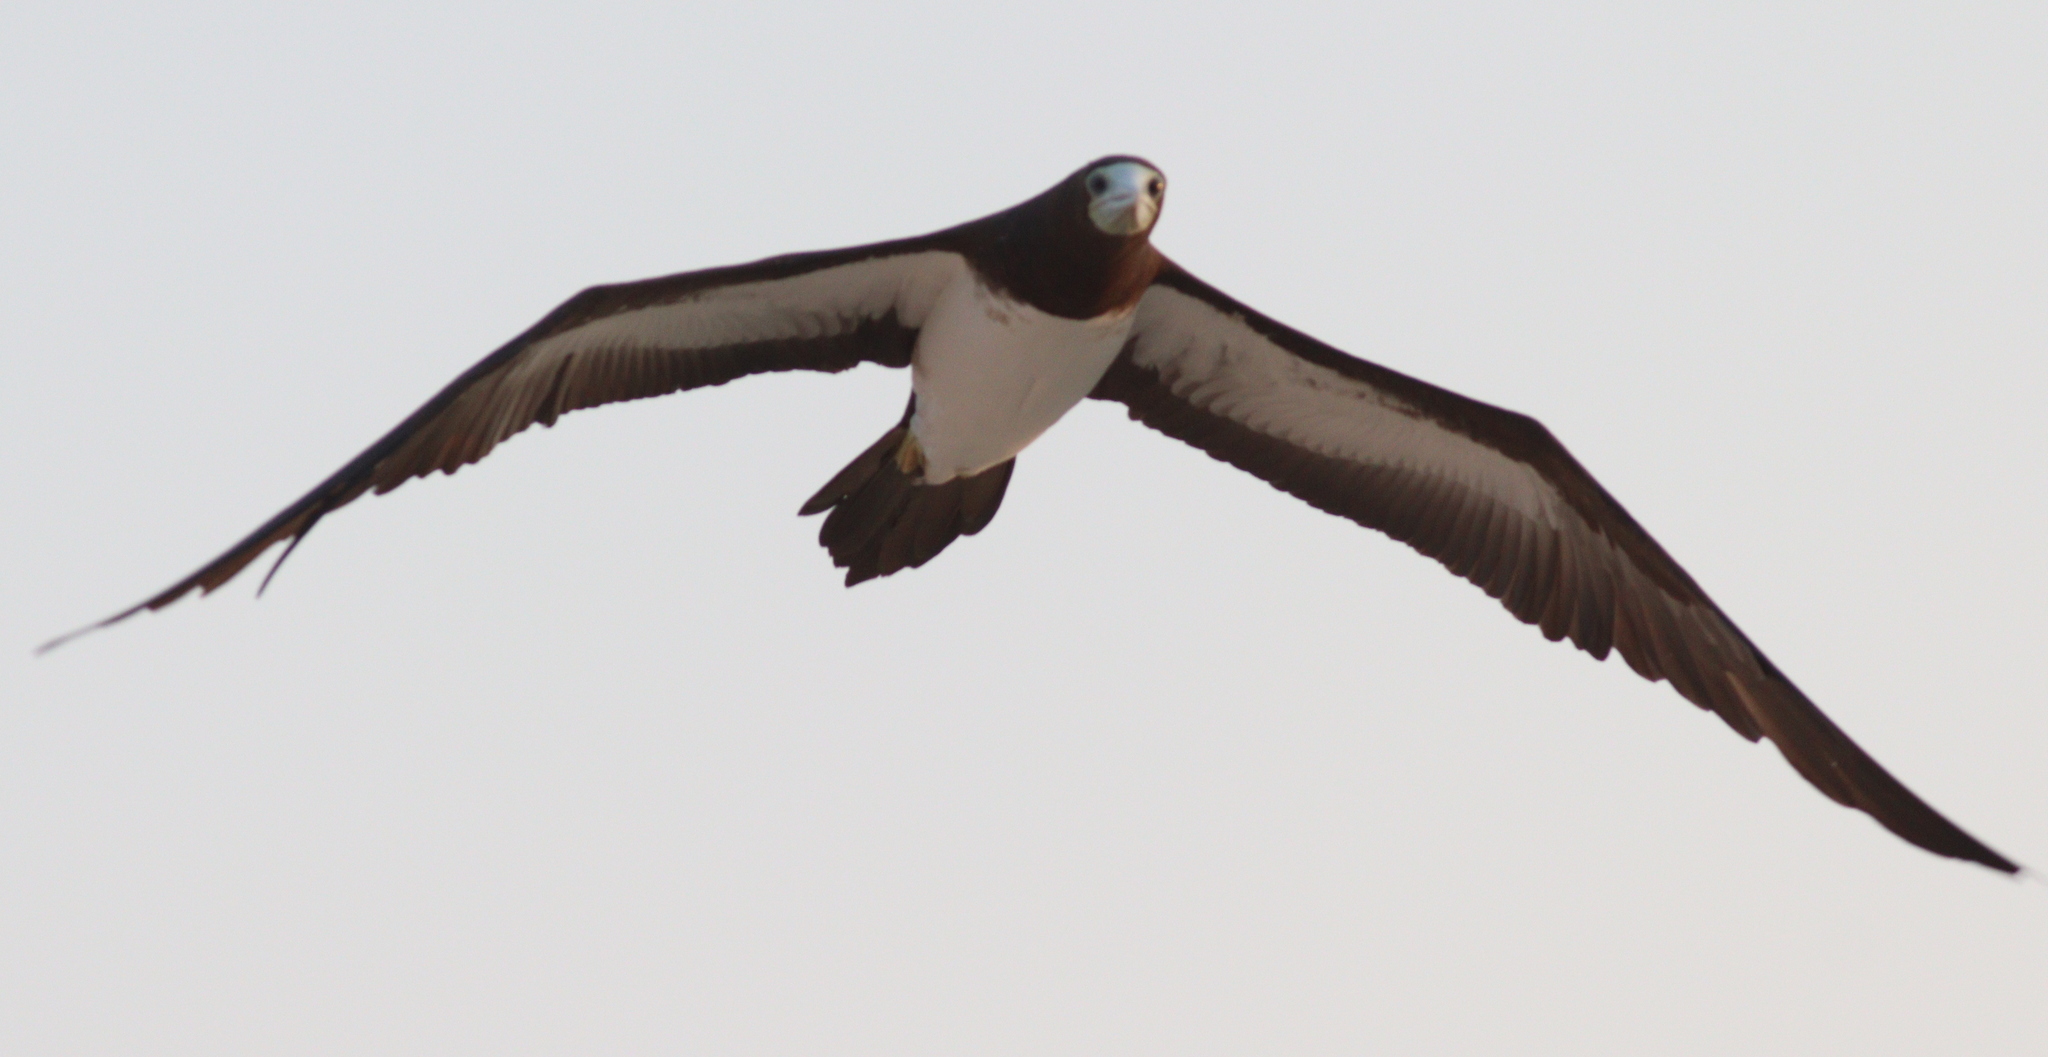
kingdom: Animalia
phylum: Chordata
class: Aves
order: Suliformes
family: Sulidae
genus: Sula
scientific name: Sula leucogaster
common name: Brown booby
